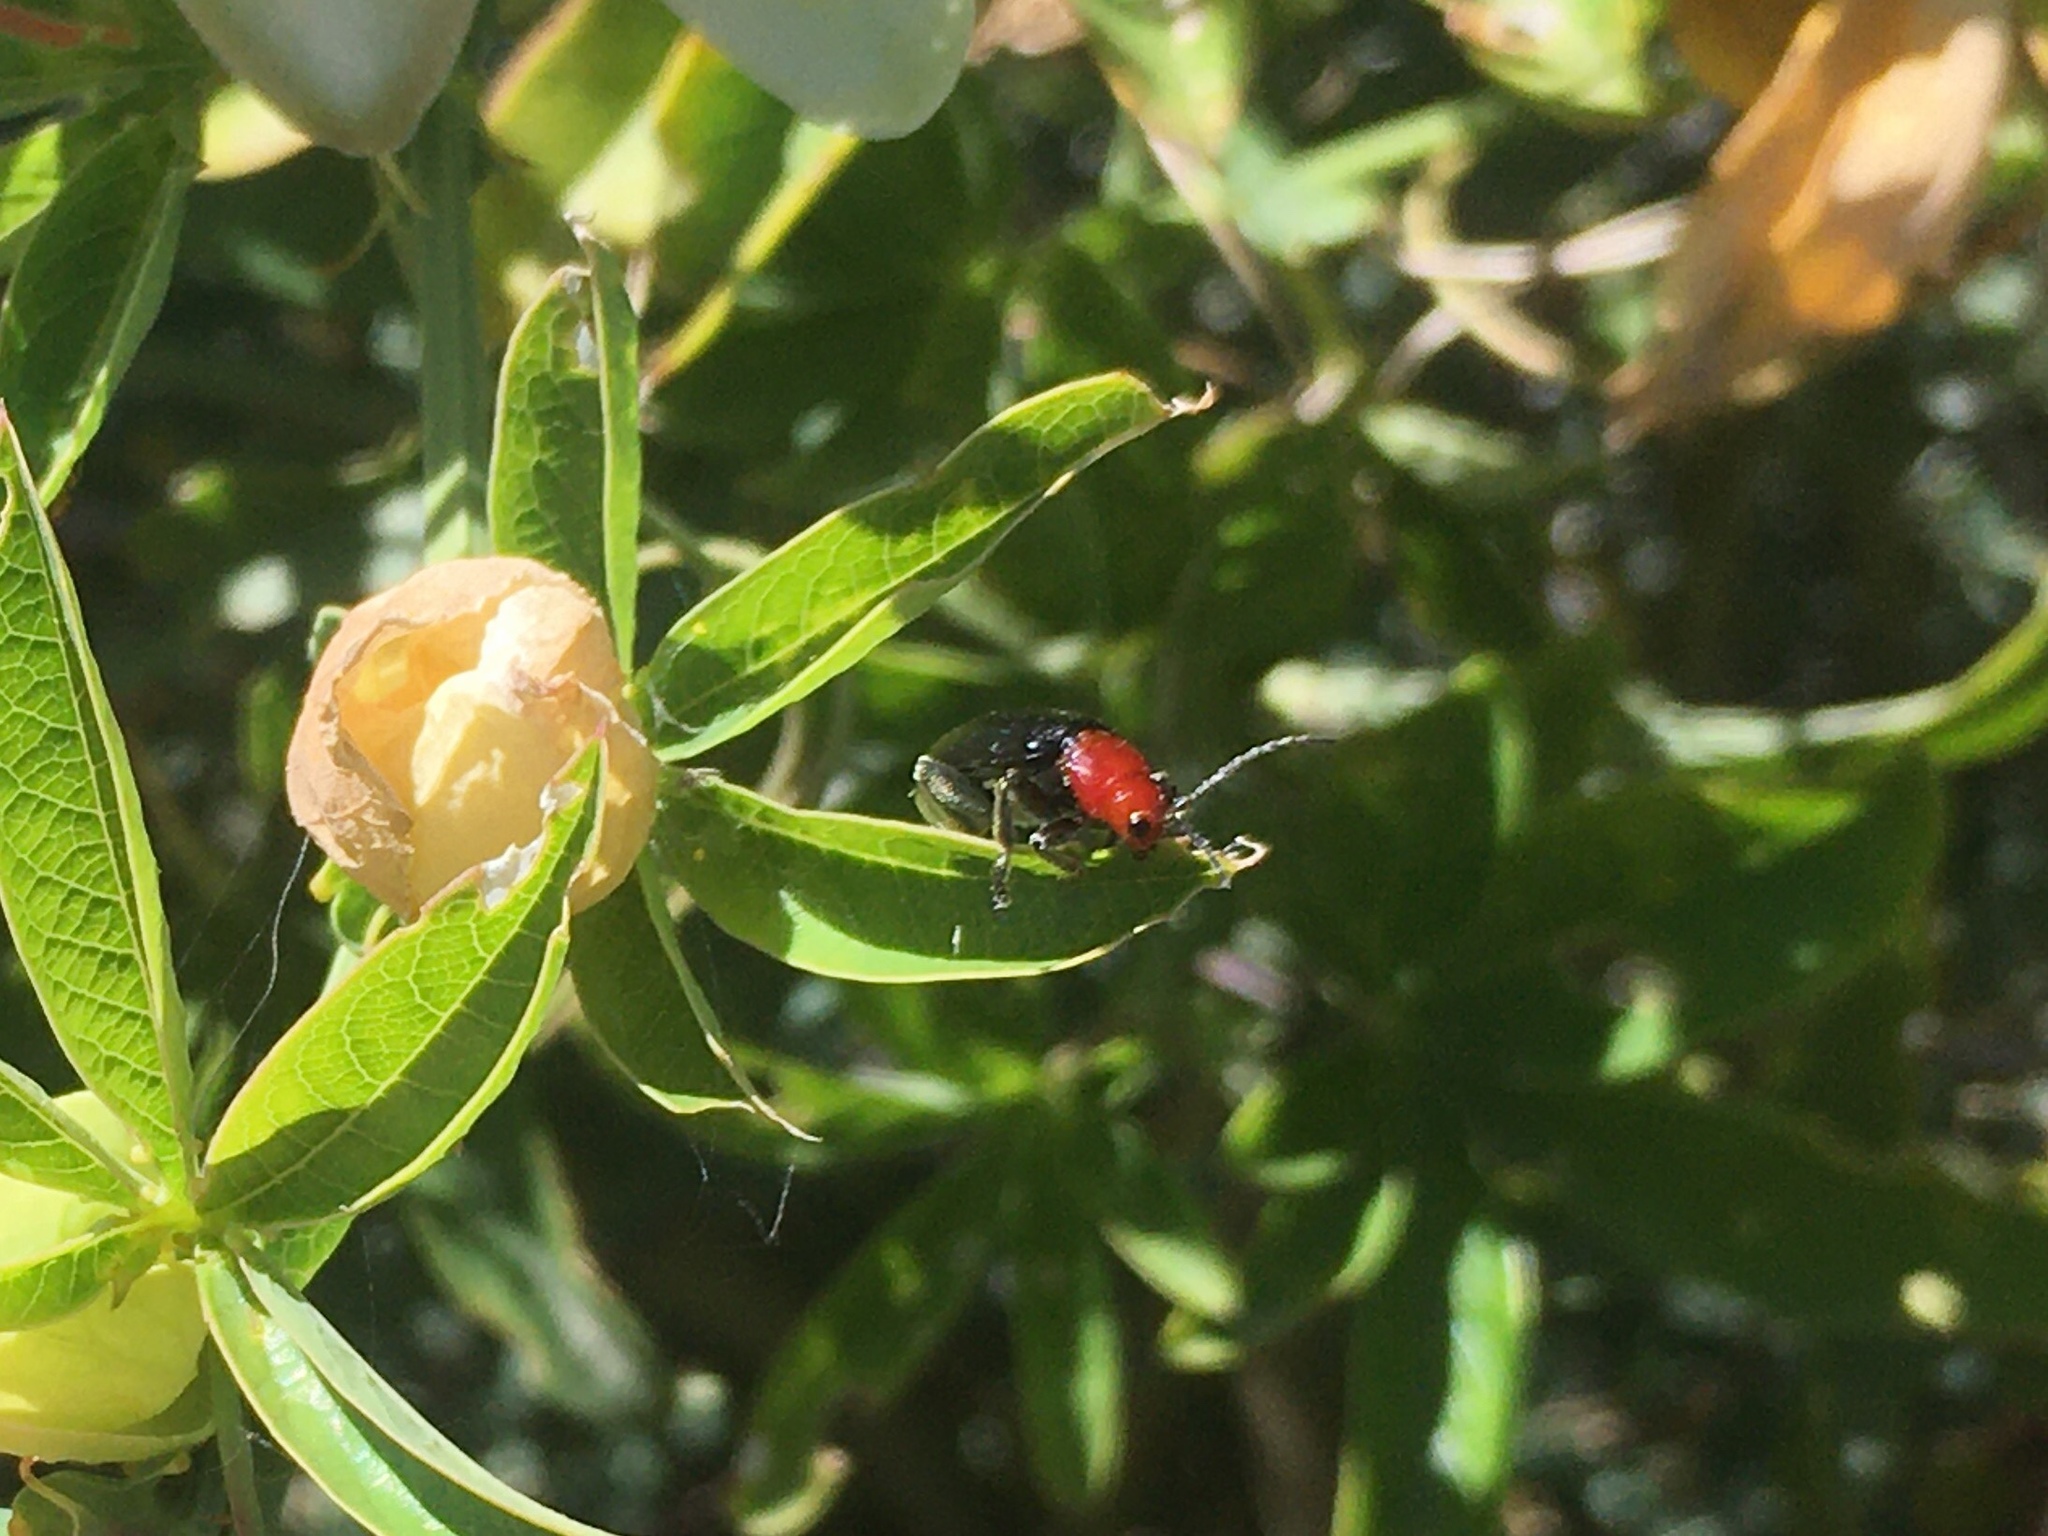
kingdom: Animalia
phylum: Arthropoda
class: Insecta
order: Coleoptera
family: Chrysomelidae
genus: Cacoscelis
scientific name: Cacoscelis
